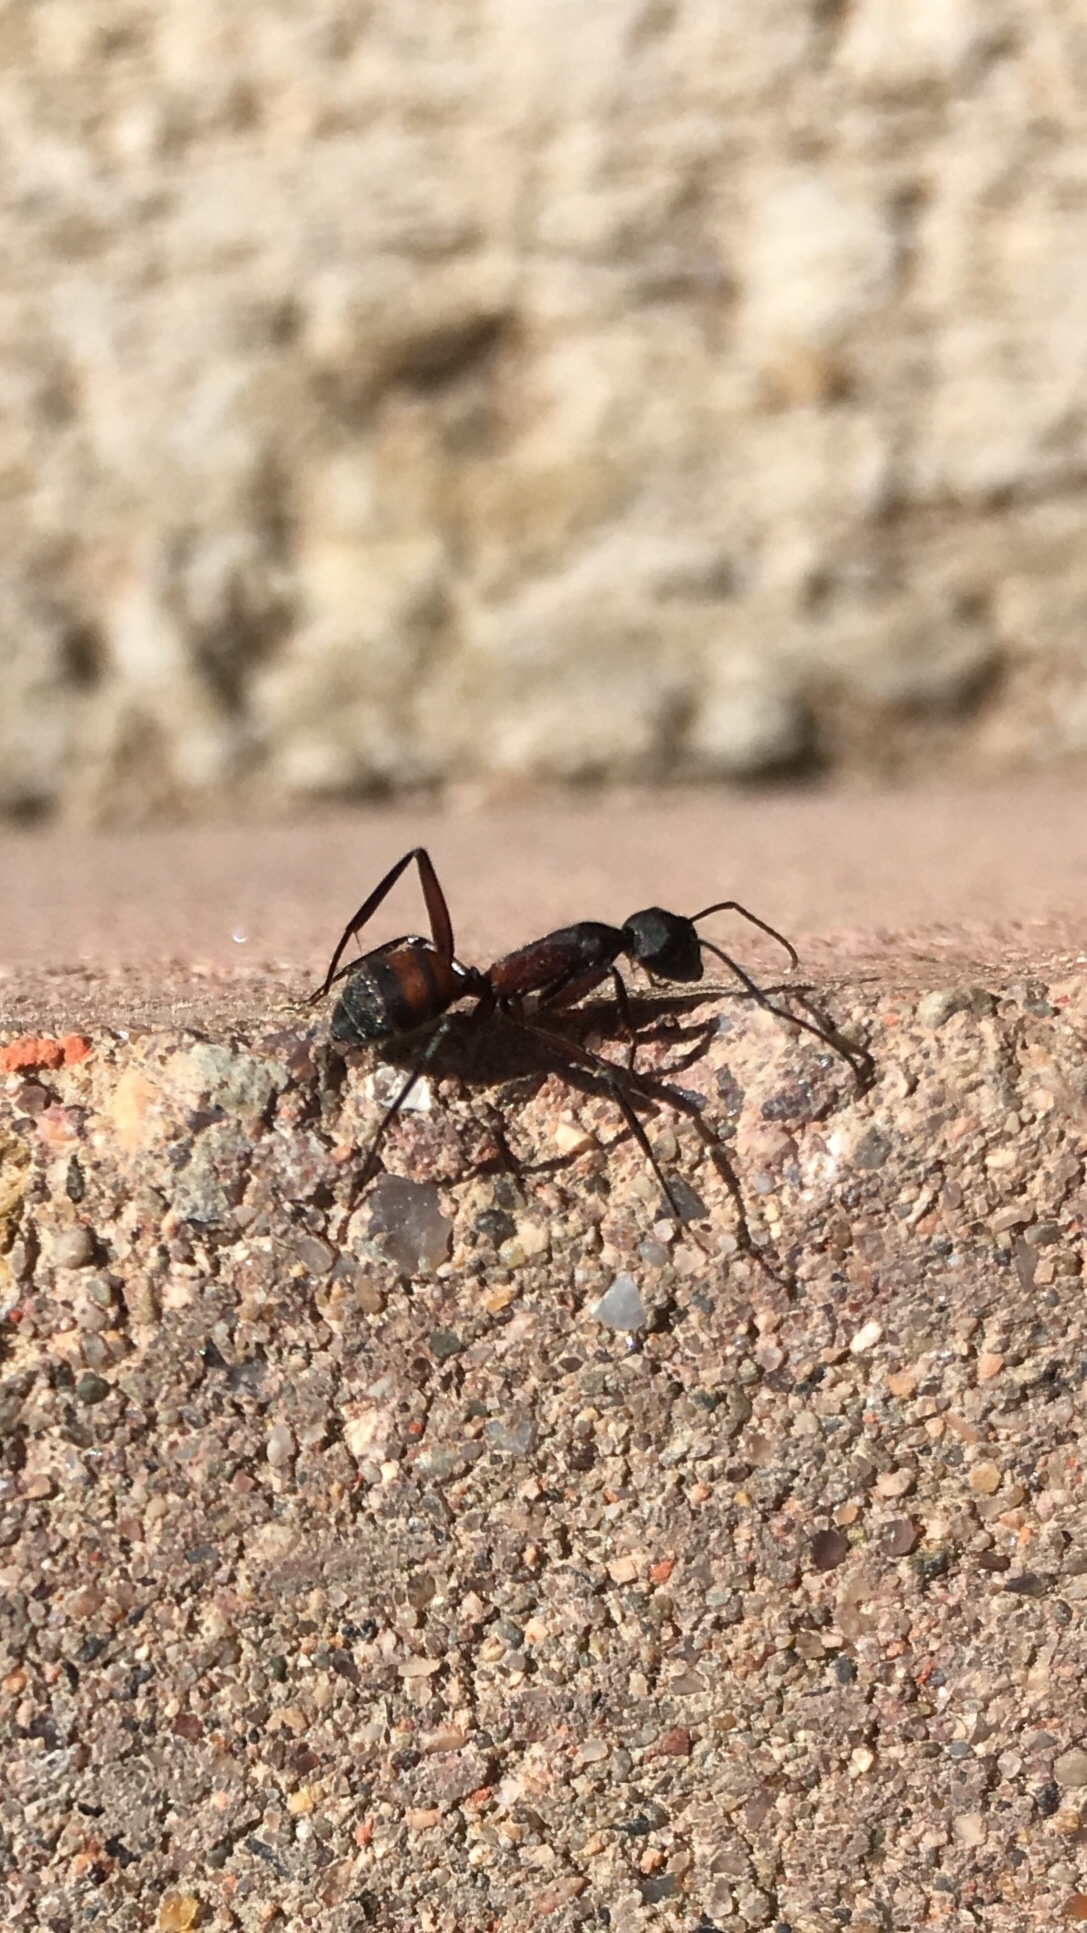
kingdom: Animalia
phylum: Arthropoda
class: Insecta
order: Hymenoptera
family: Formicidae
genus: Camponotus
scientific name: Camponotus cruentatus
